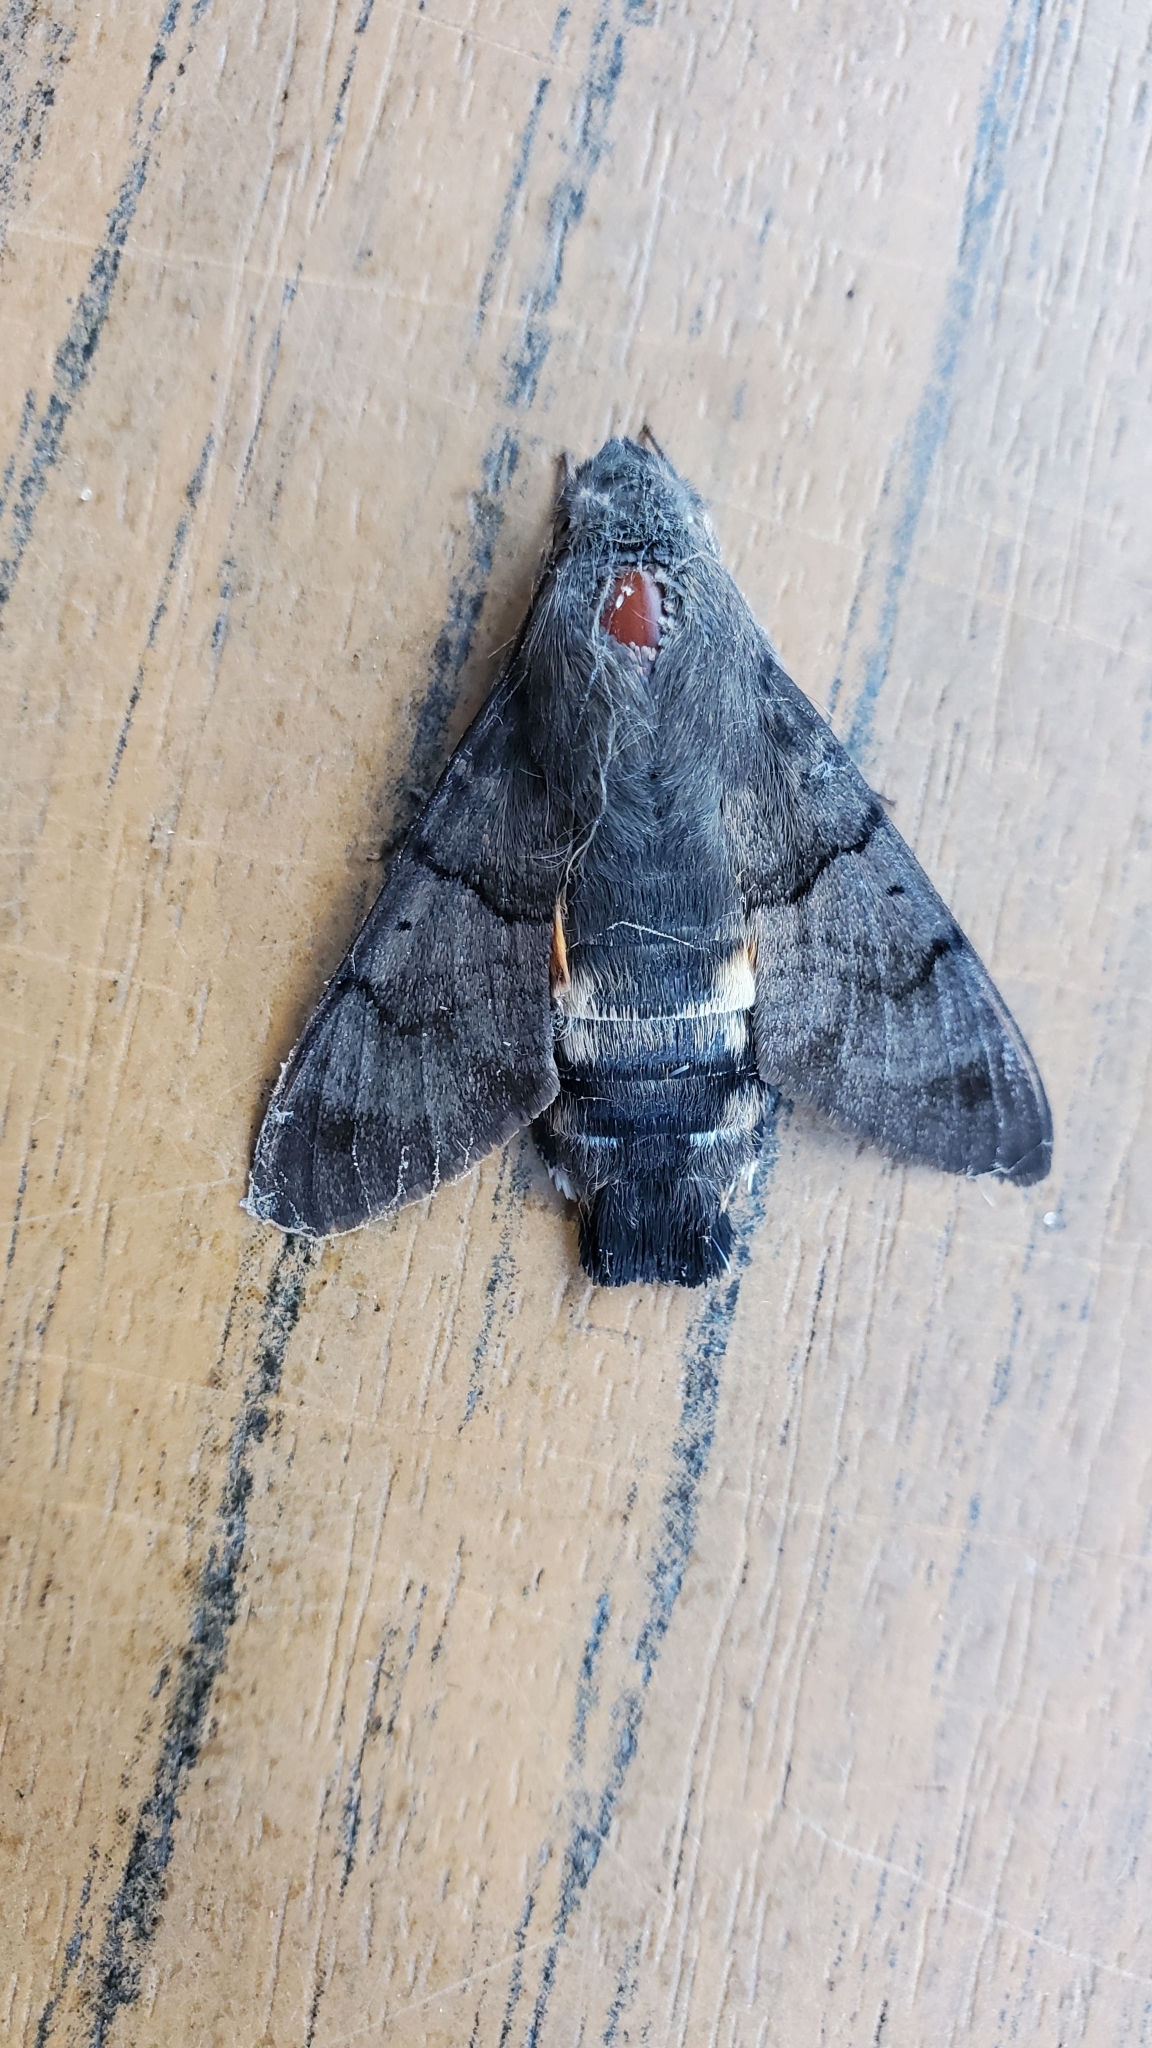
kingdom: Animalia
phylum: Arthropoda
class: Insecta
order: Lepidoptera
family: Sphingidae
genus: Macroglossum
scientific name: Macroglossum stellatarum
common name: Humming-bird hawk-moth
